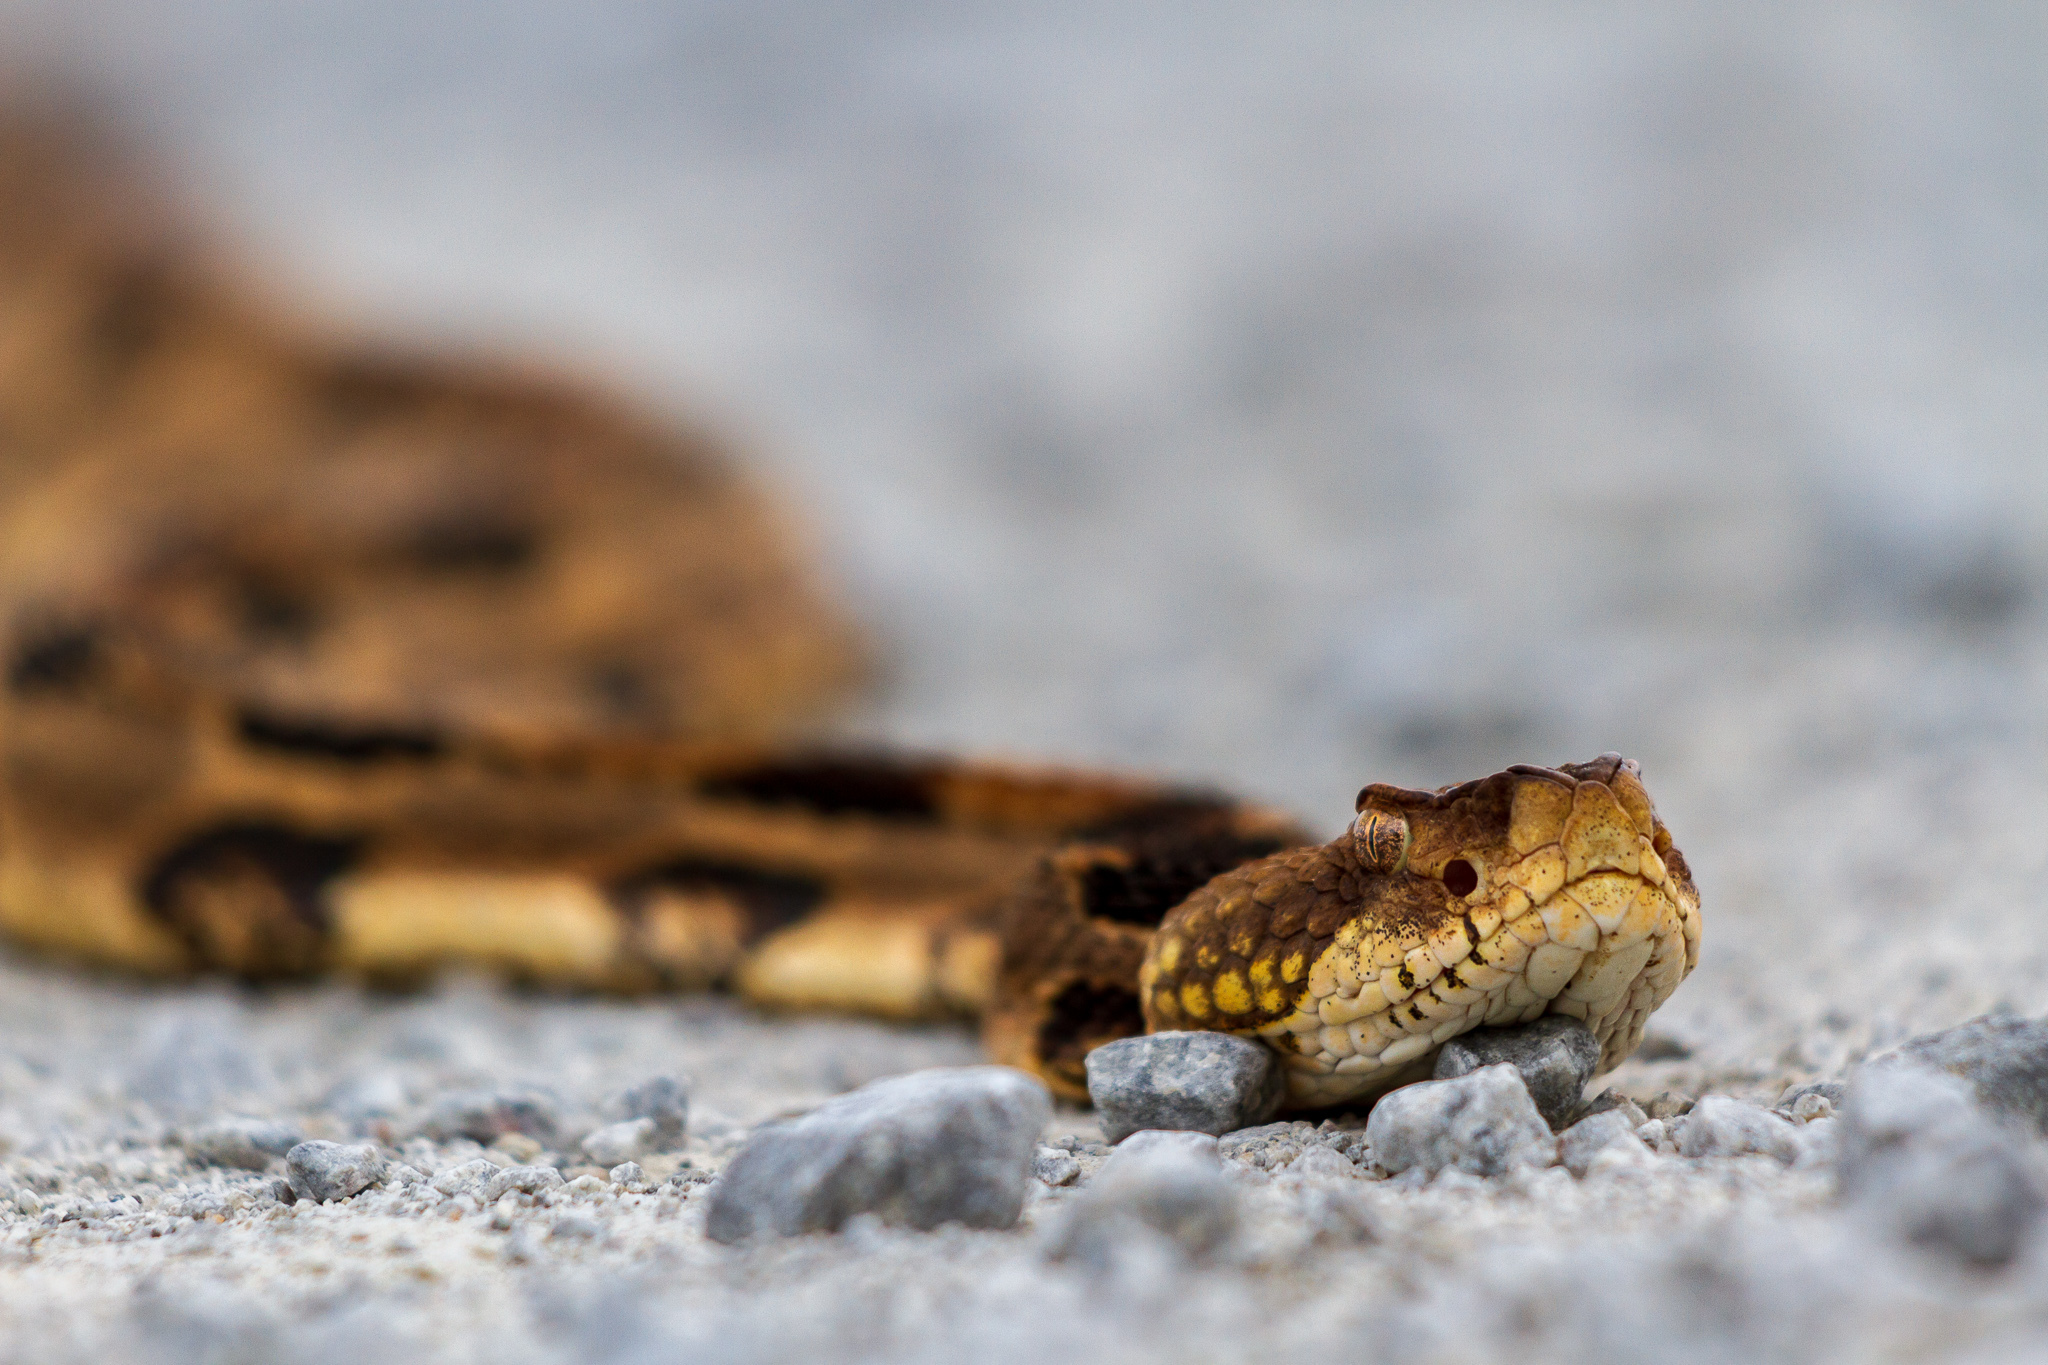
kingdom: Animalia
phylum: Chordata
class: Squamata
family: Viperidae
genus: Crotalus
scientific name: Crotalus horridus
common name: Timber rattlesnake
